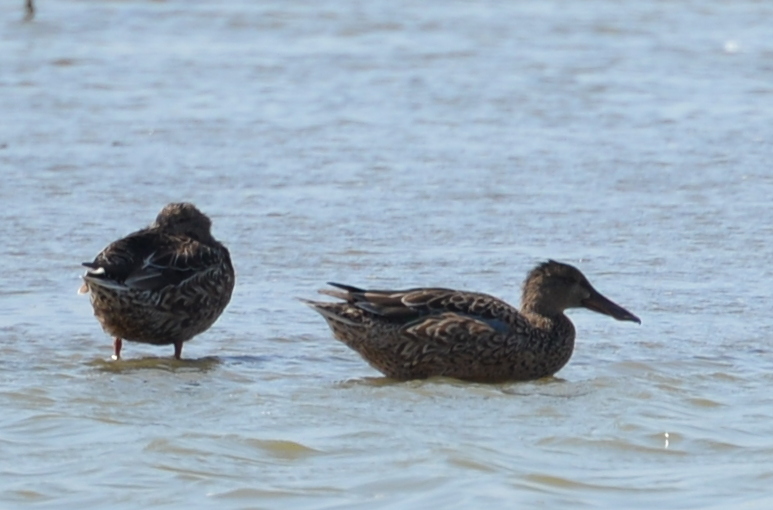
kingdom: Animalia
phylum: Chordata
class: Aves
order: Anseriformes
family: Anatidae
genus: Spatula
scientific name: Spatula clypeata
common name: Northern shoveler
